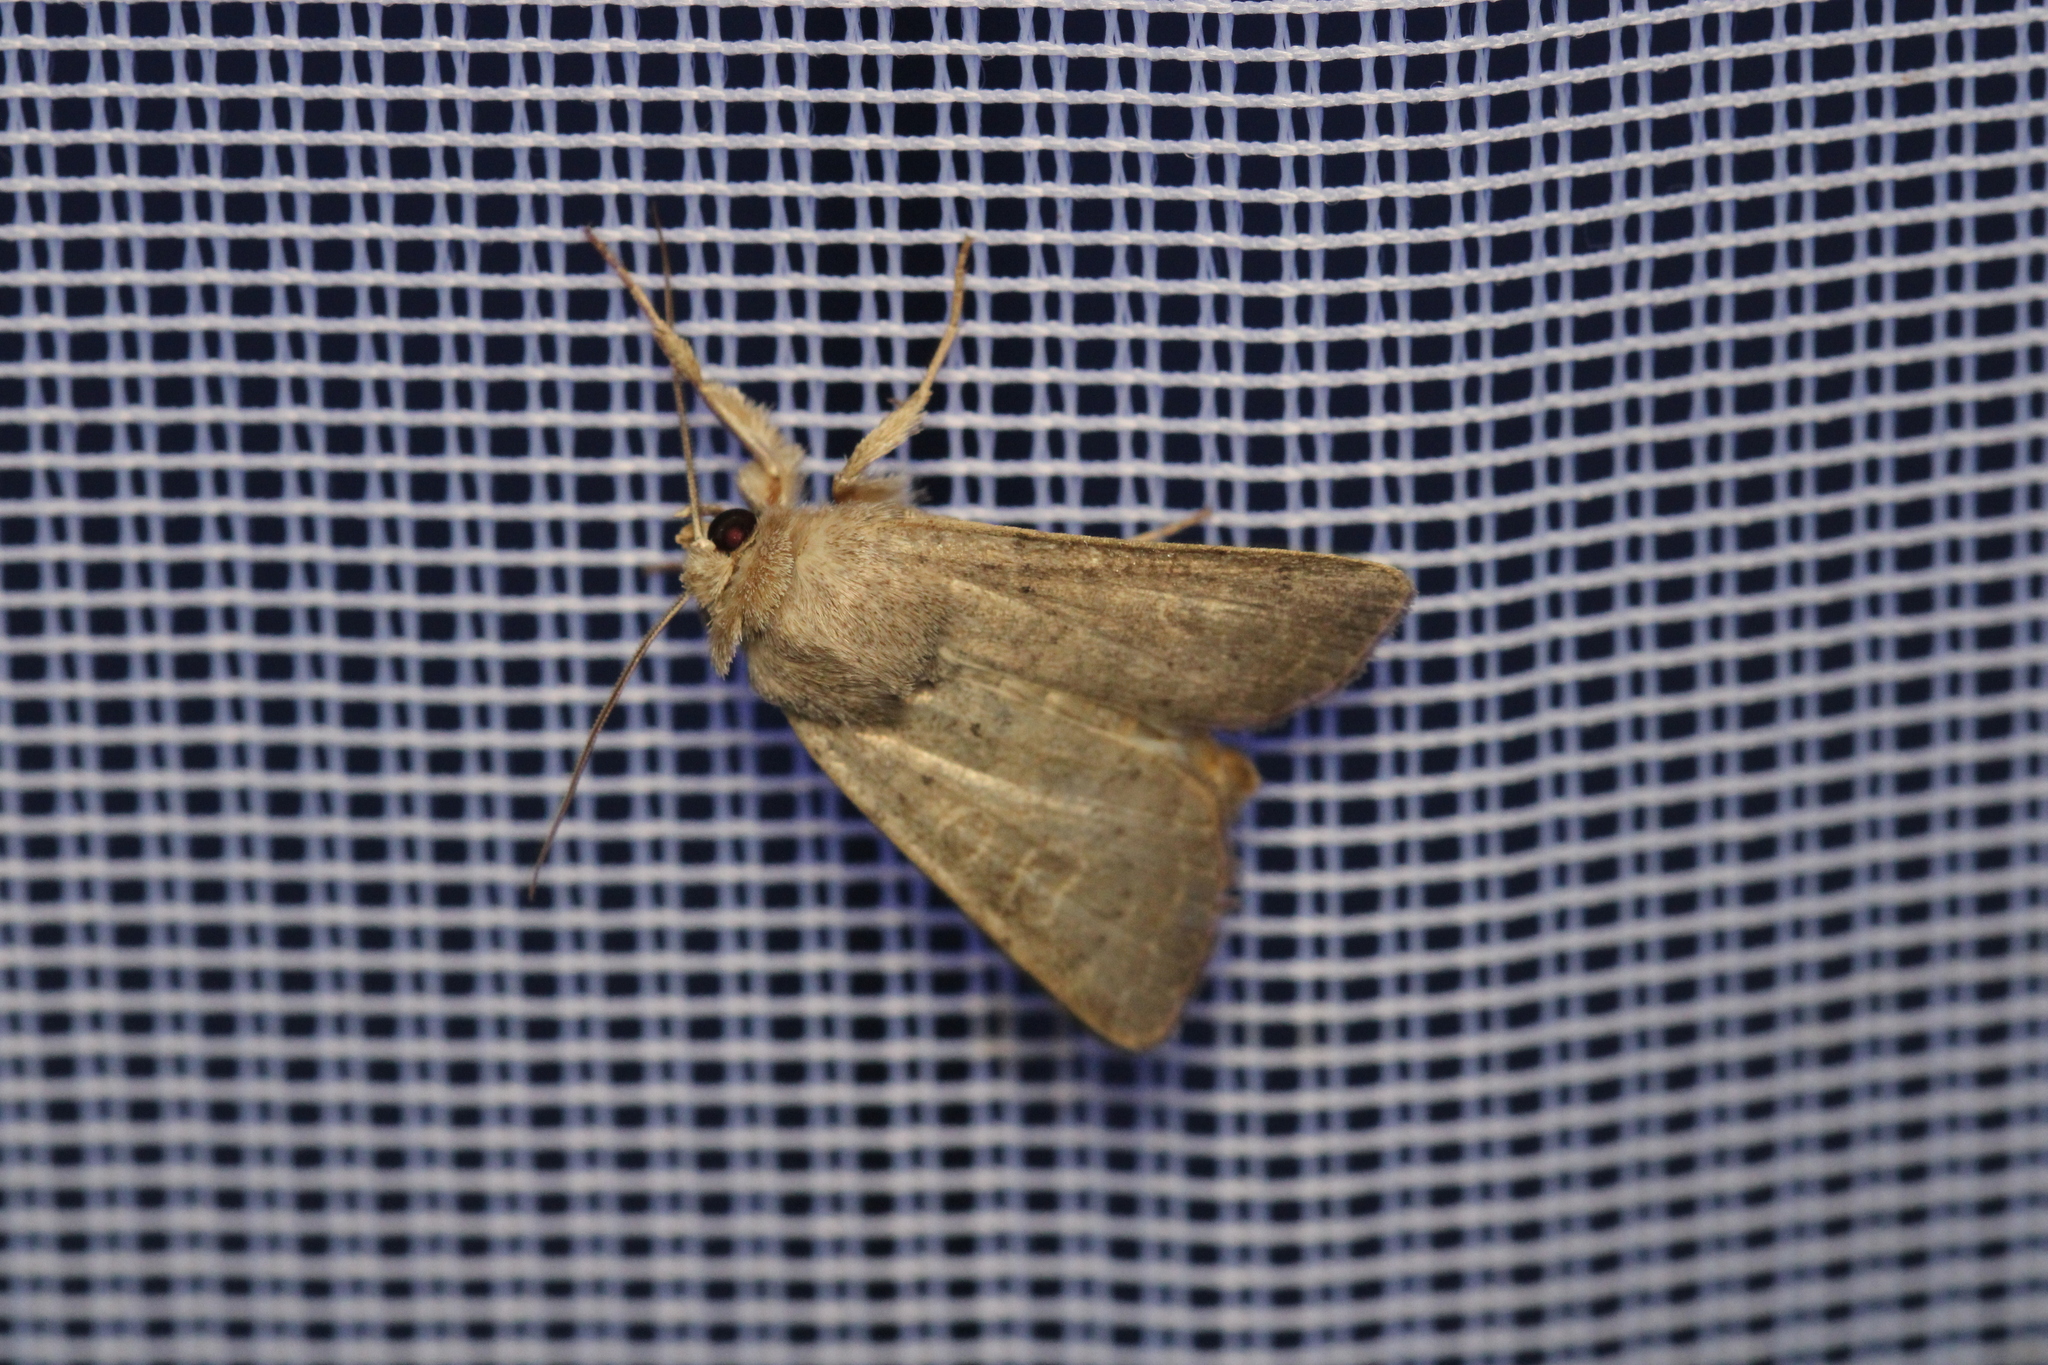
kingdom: Animalia
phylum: Arthropoda
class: Insecta
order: Lepidoptera
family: Noctuidae
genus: Hoplodrina
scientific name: Hoplodrina ambigua
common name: Vine's rustic
